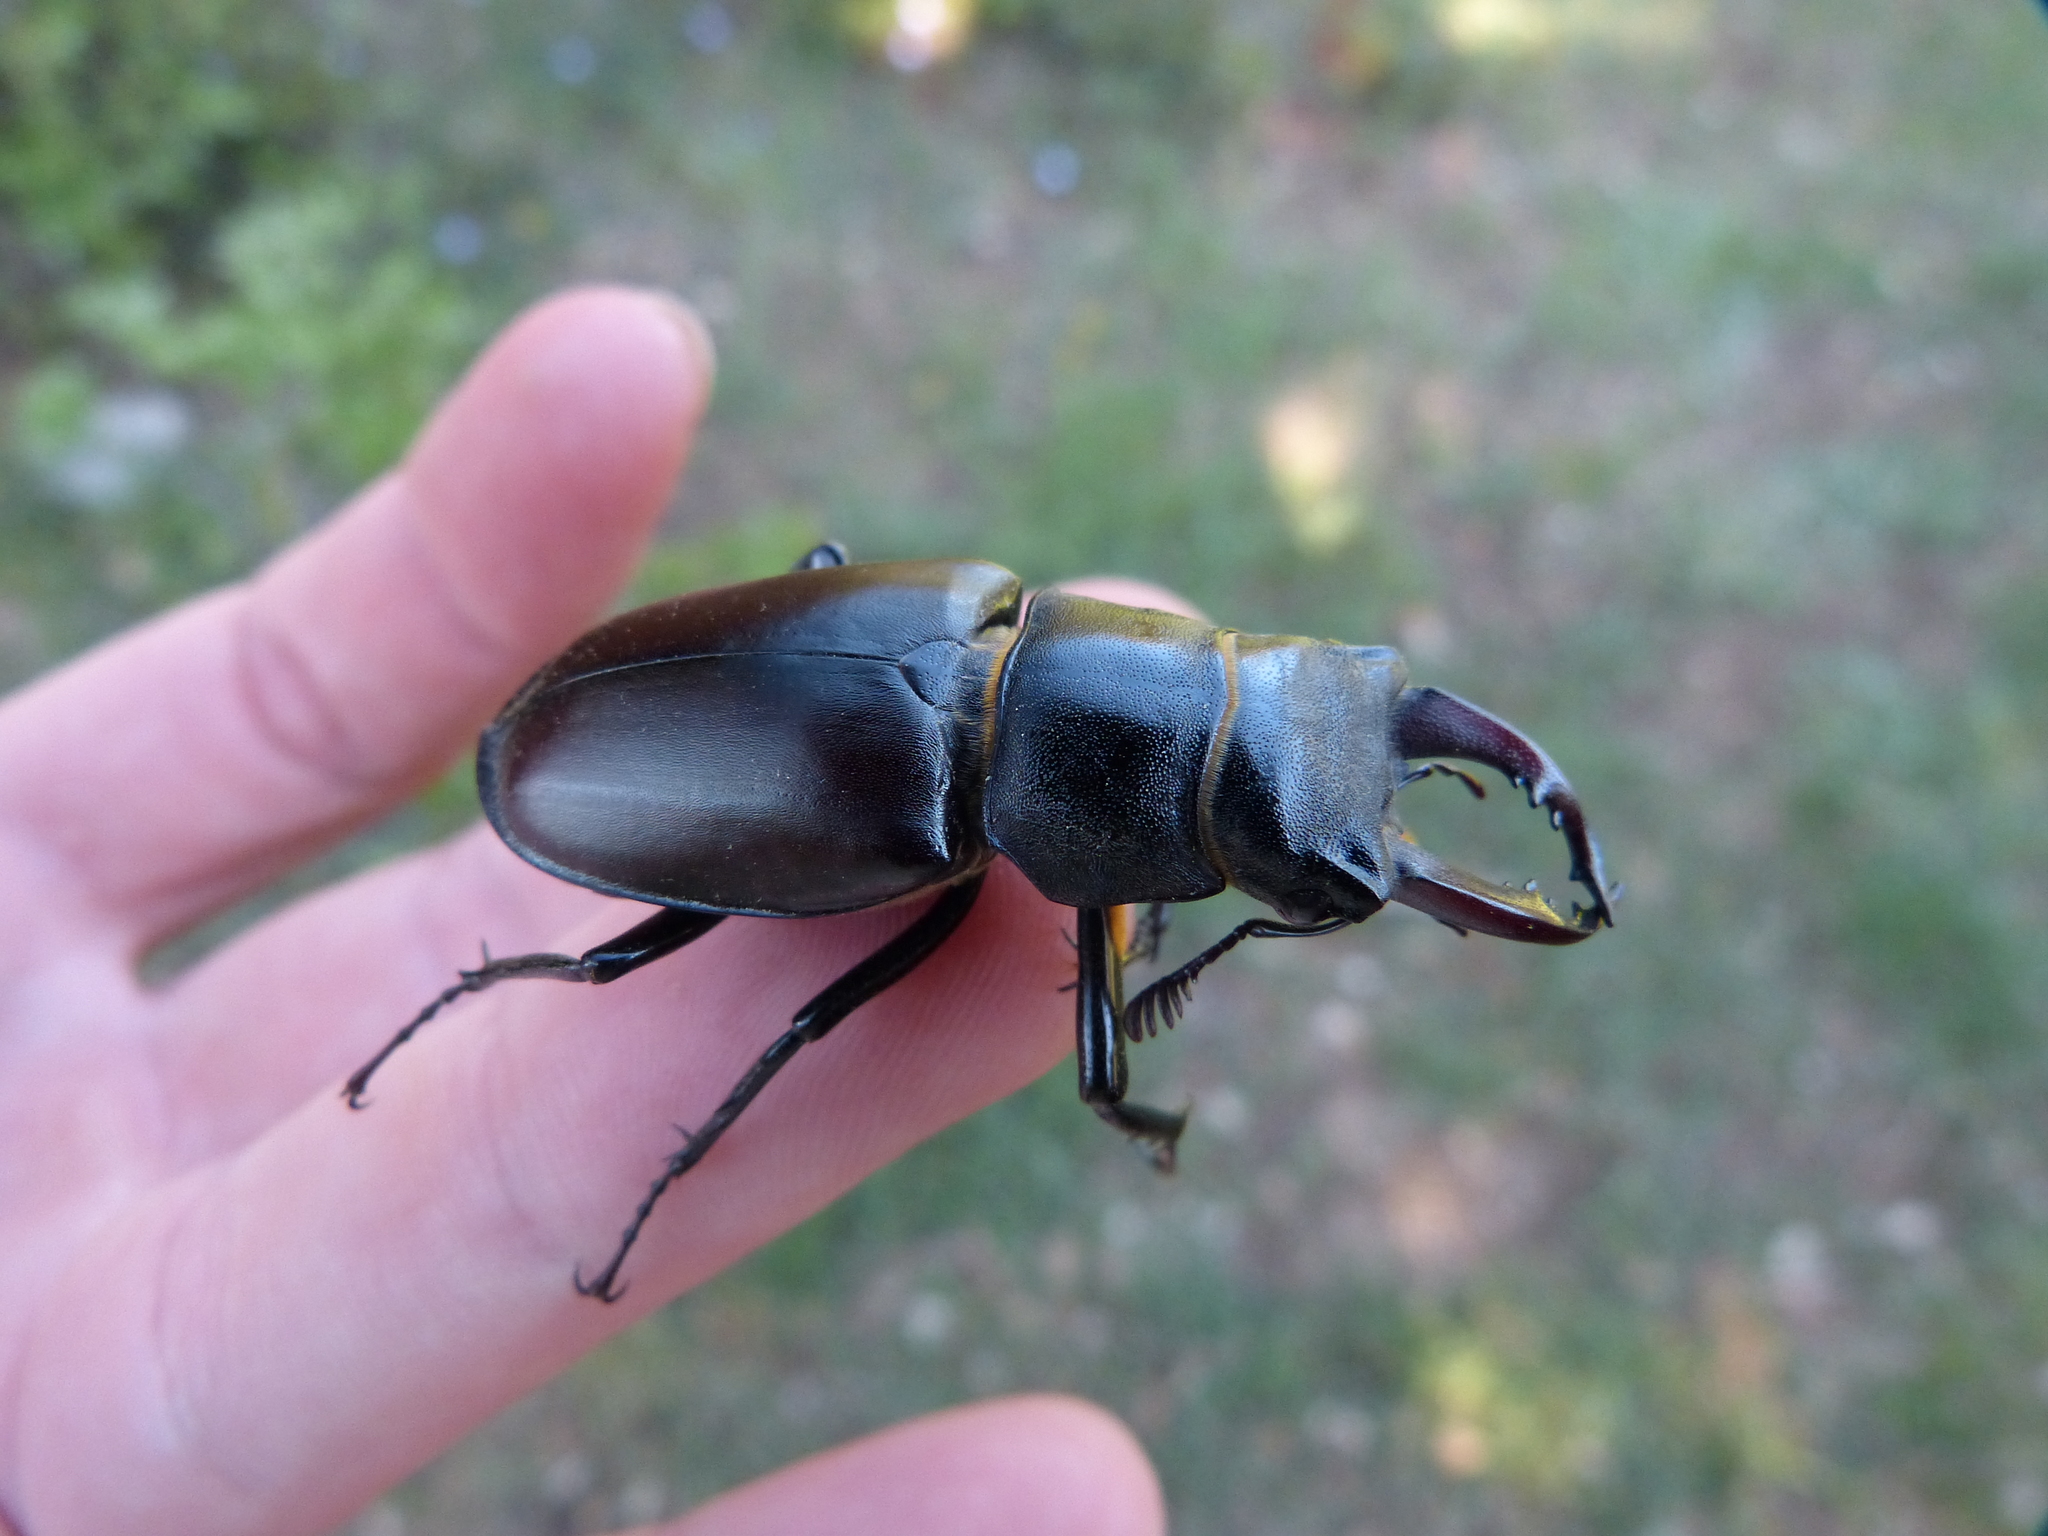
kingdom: Animalia
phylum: Arthropoda
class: Insecta
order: Coleoptera
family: Lucanidae
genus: Lucanus
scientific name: Lucanus cervus
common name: Stag beetle
